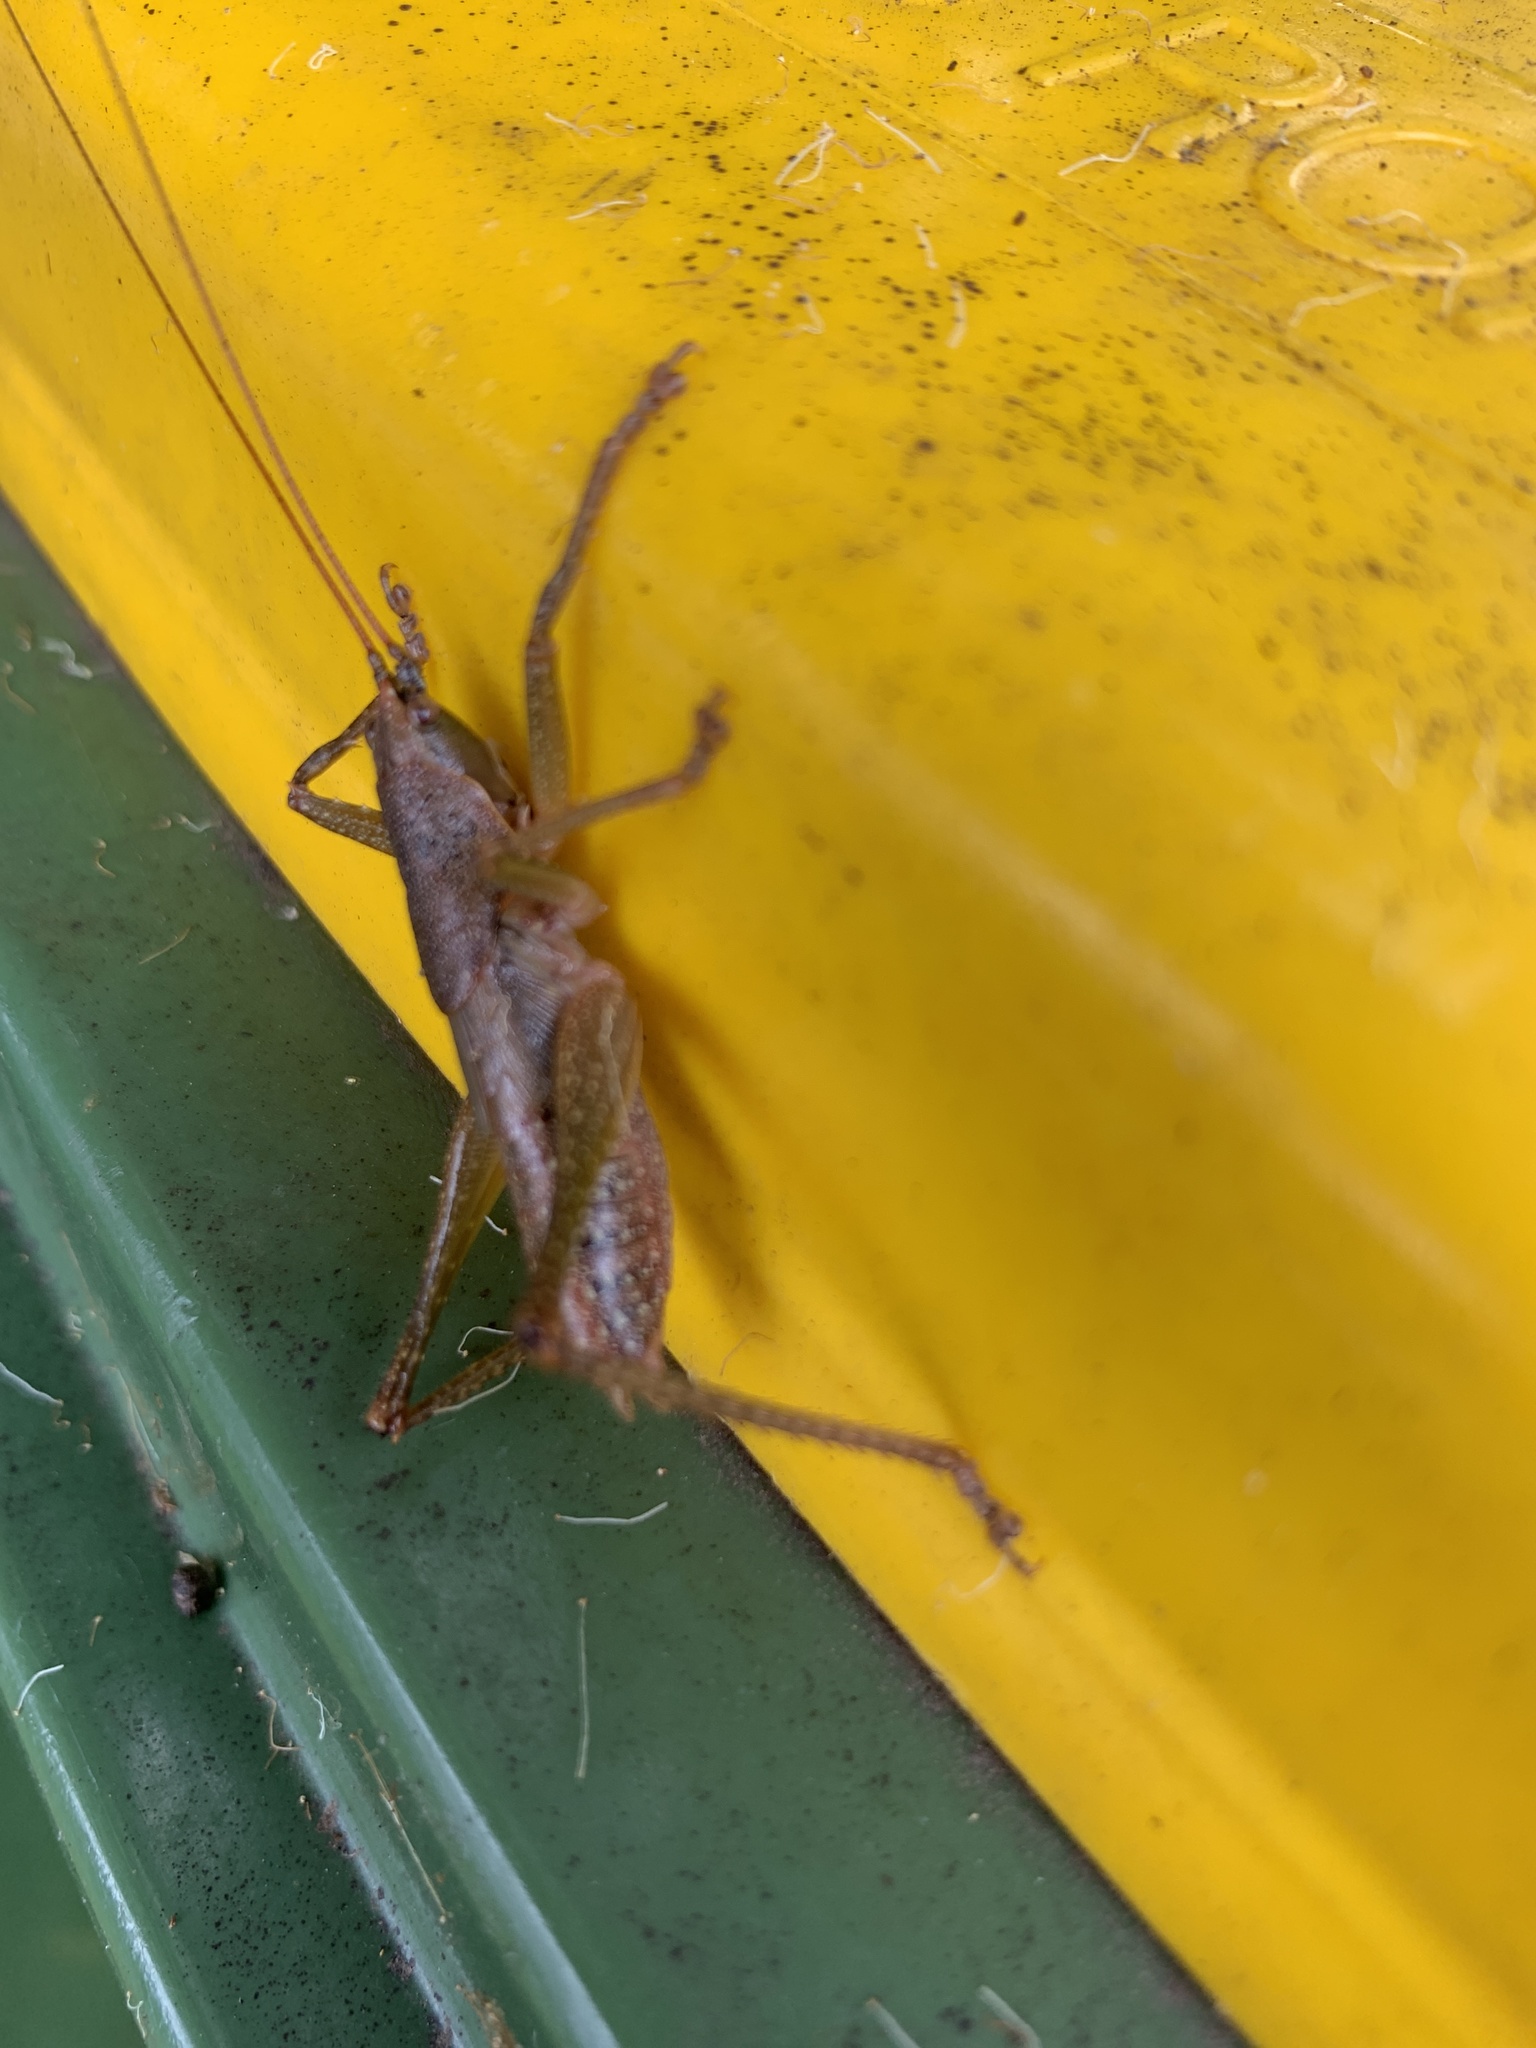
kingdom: Animalia
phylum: Arthropoda
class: Insecta
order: Orthoptera
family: Tettigoniidae
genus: Austrosalomona
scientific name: Austrosalomona falcata
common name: Olive-green coastal katydid
